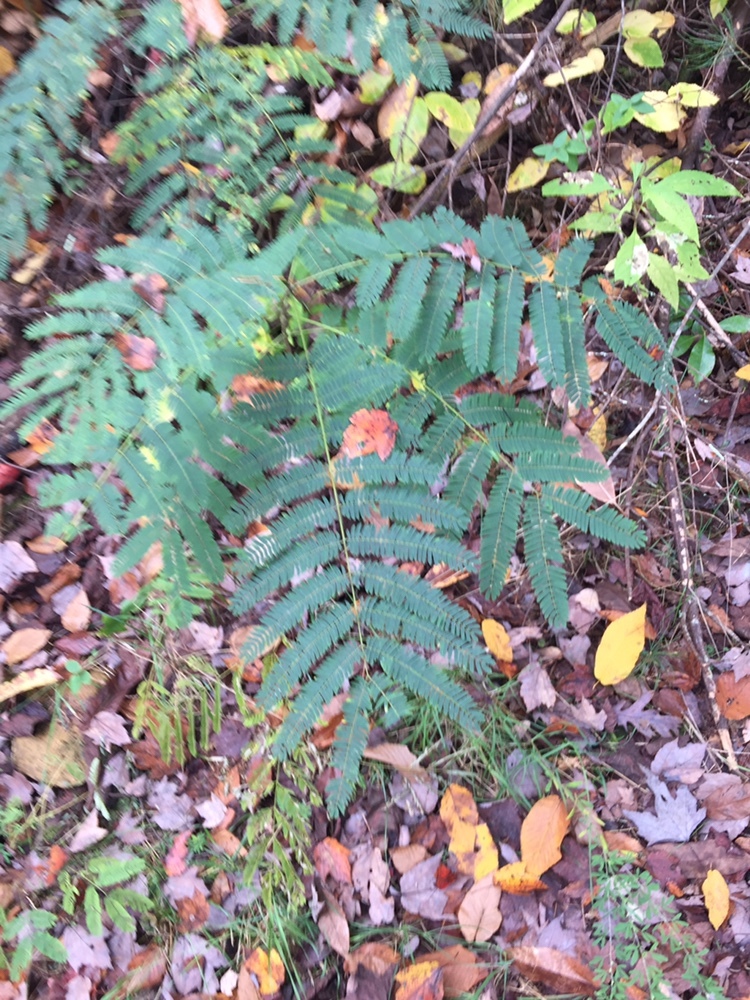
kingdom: Plantae
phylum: Tracheophyta
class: Magnoliopsida
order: Fabales
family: Fabaceae
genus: Albizia
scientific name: Albizia julibrissin
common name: Silktree
